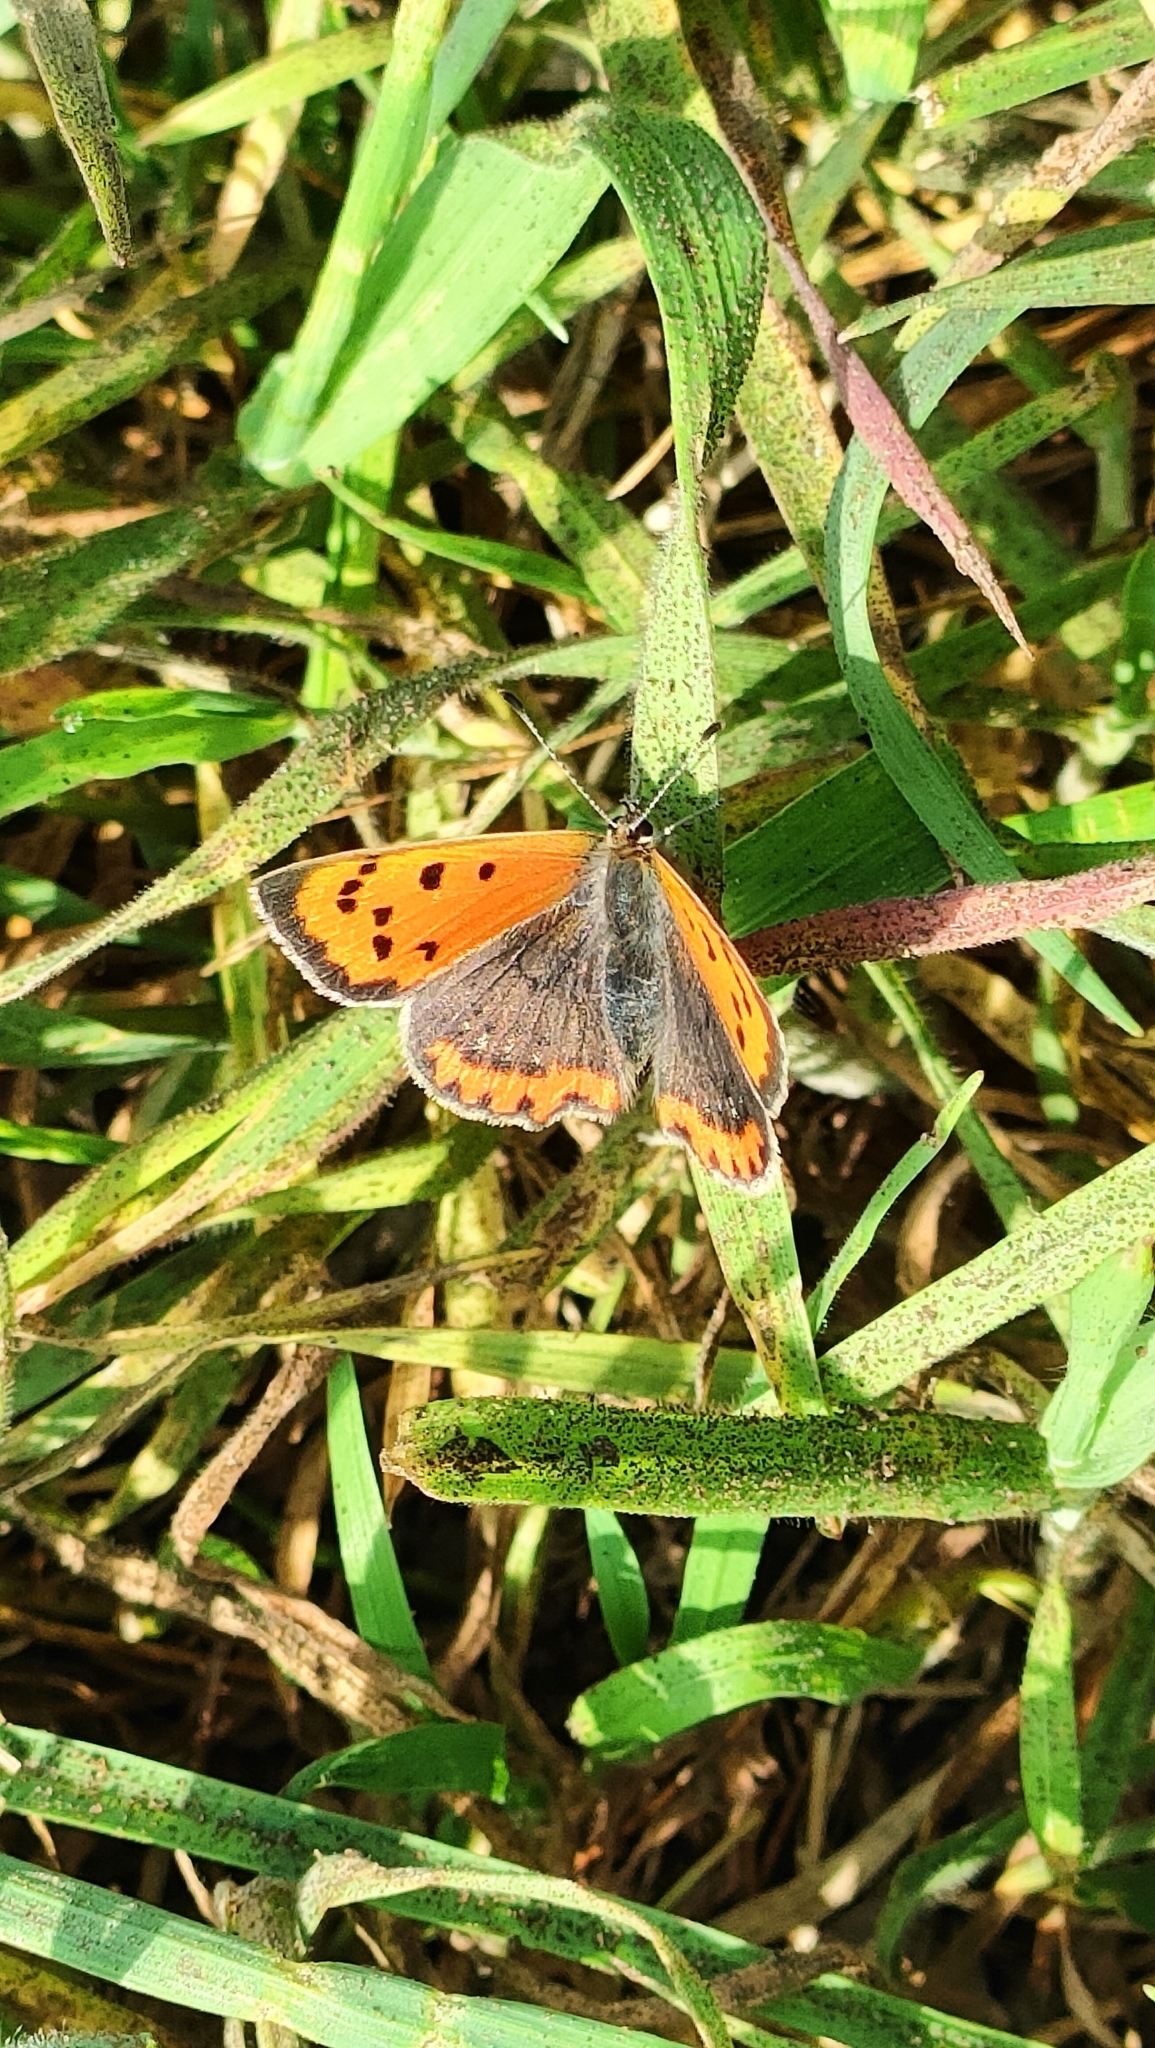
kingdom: Animalia
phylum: Arthropoda
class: Insecta
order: Lepidoptera
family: Lycaenidae
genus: Lycaena
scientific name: Lycaena phlaeas
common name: Small copper
